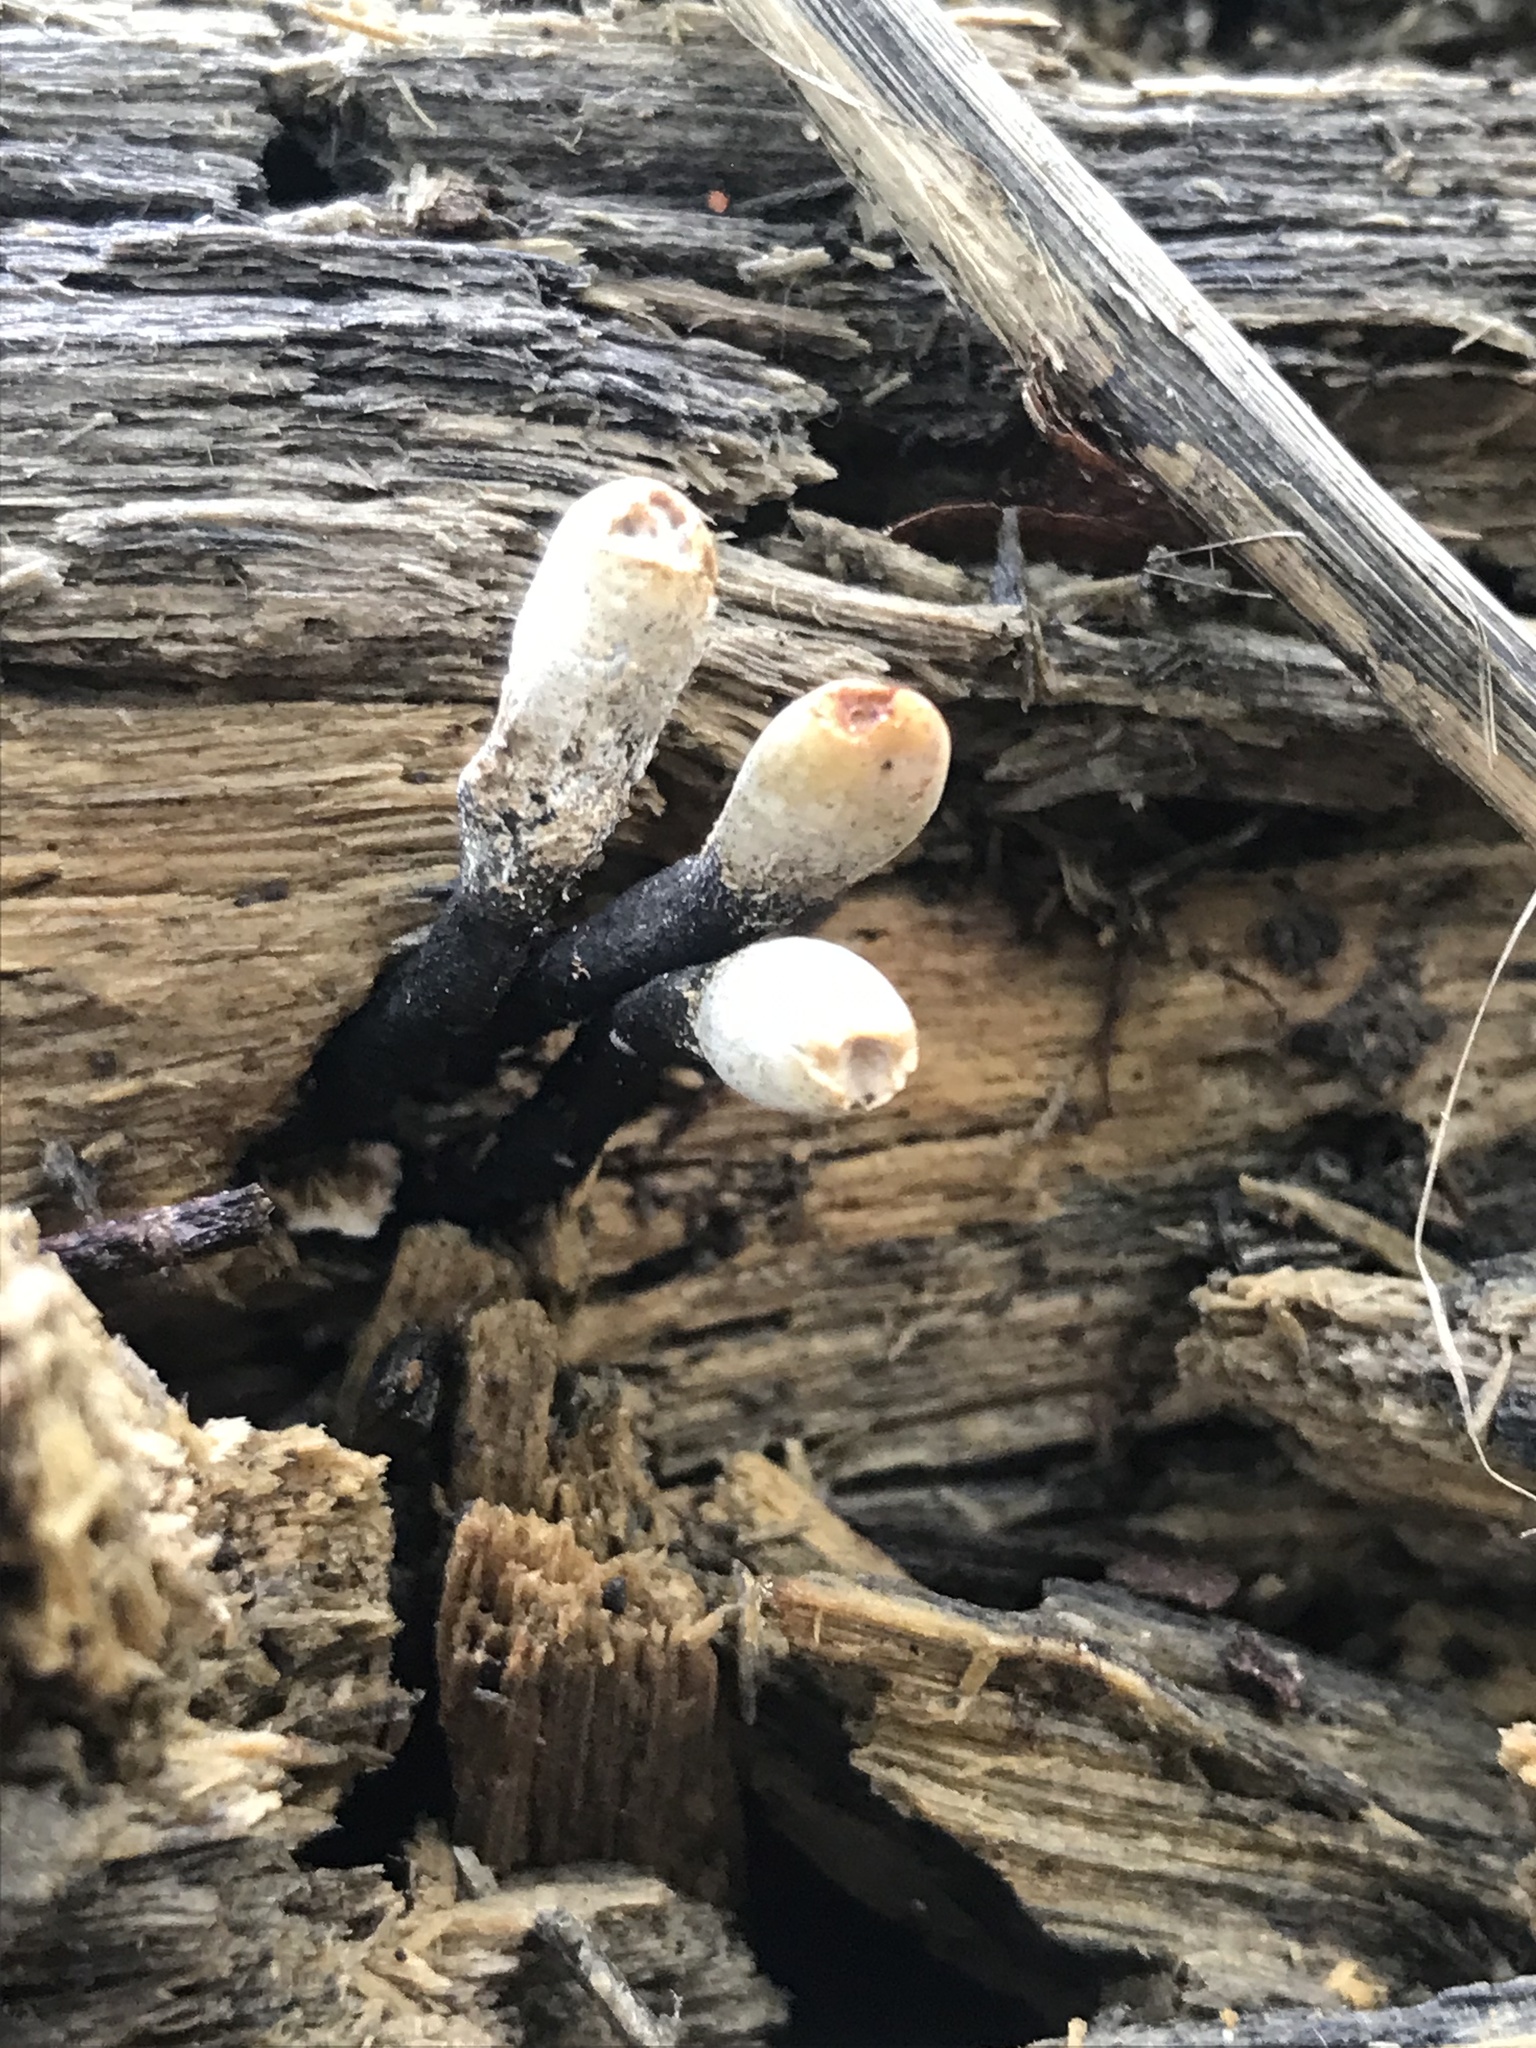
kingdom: Fungi
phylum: Ascomycota
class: Sordariomycetes
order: Xylariales
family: Xylariaceae
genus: Xylaria
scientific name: Xylaria polymorpha
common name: Dead man's fingers
